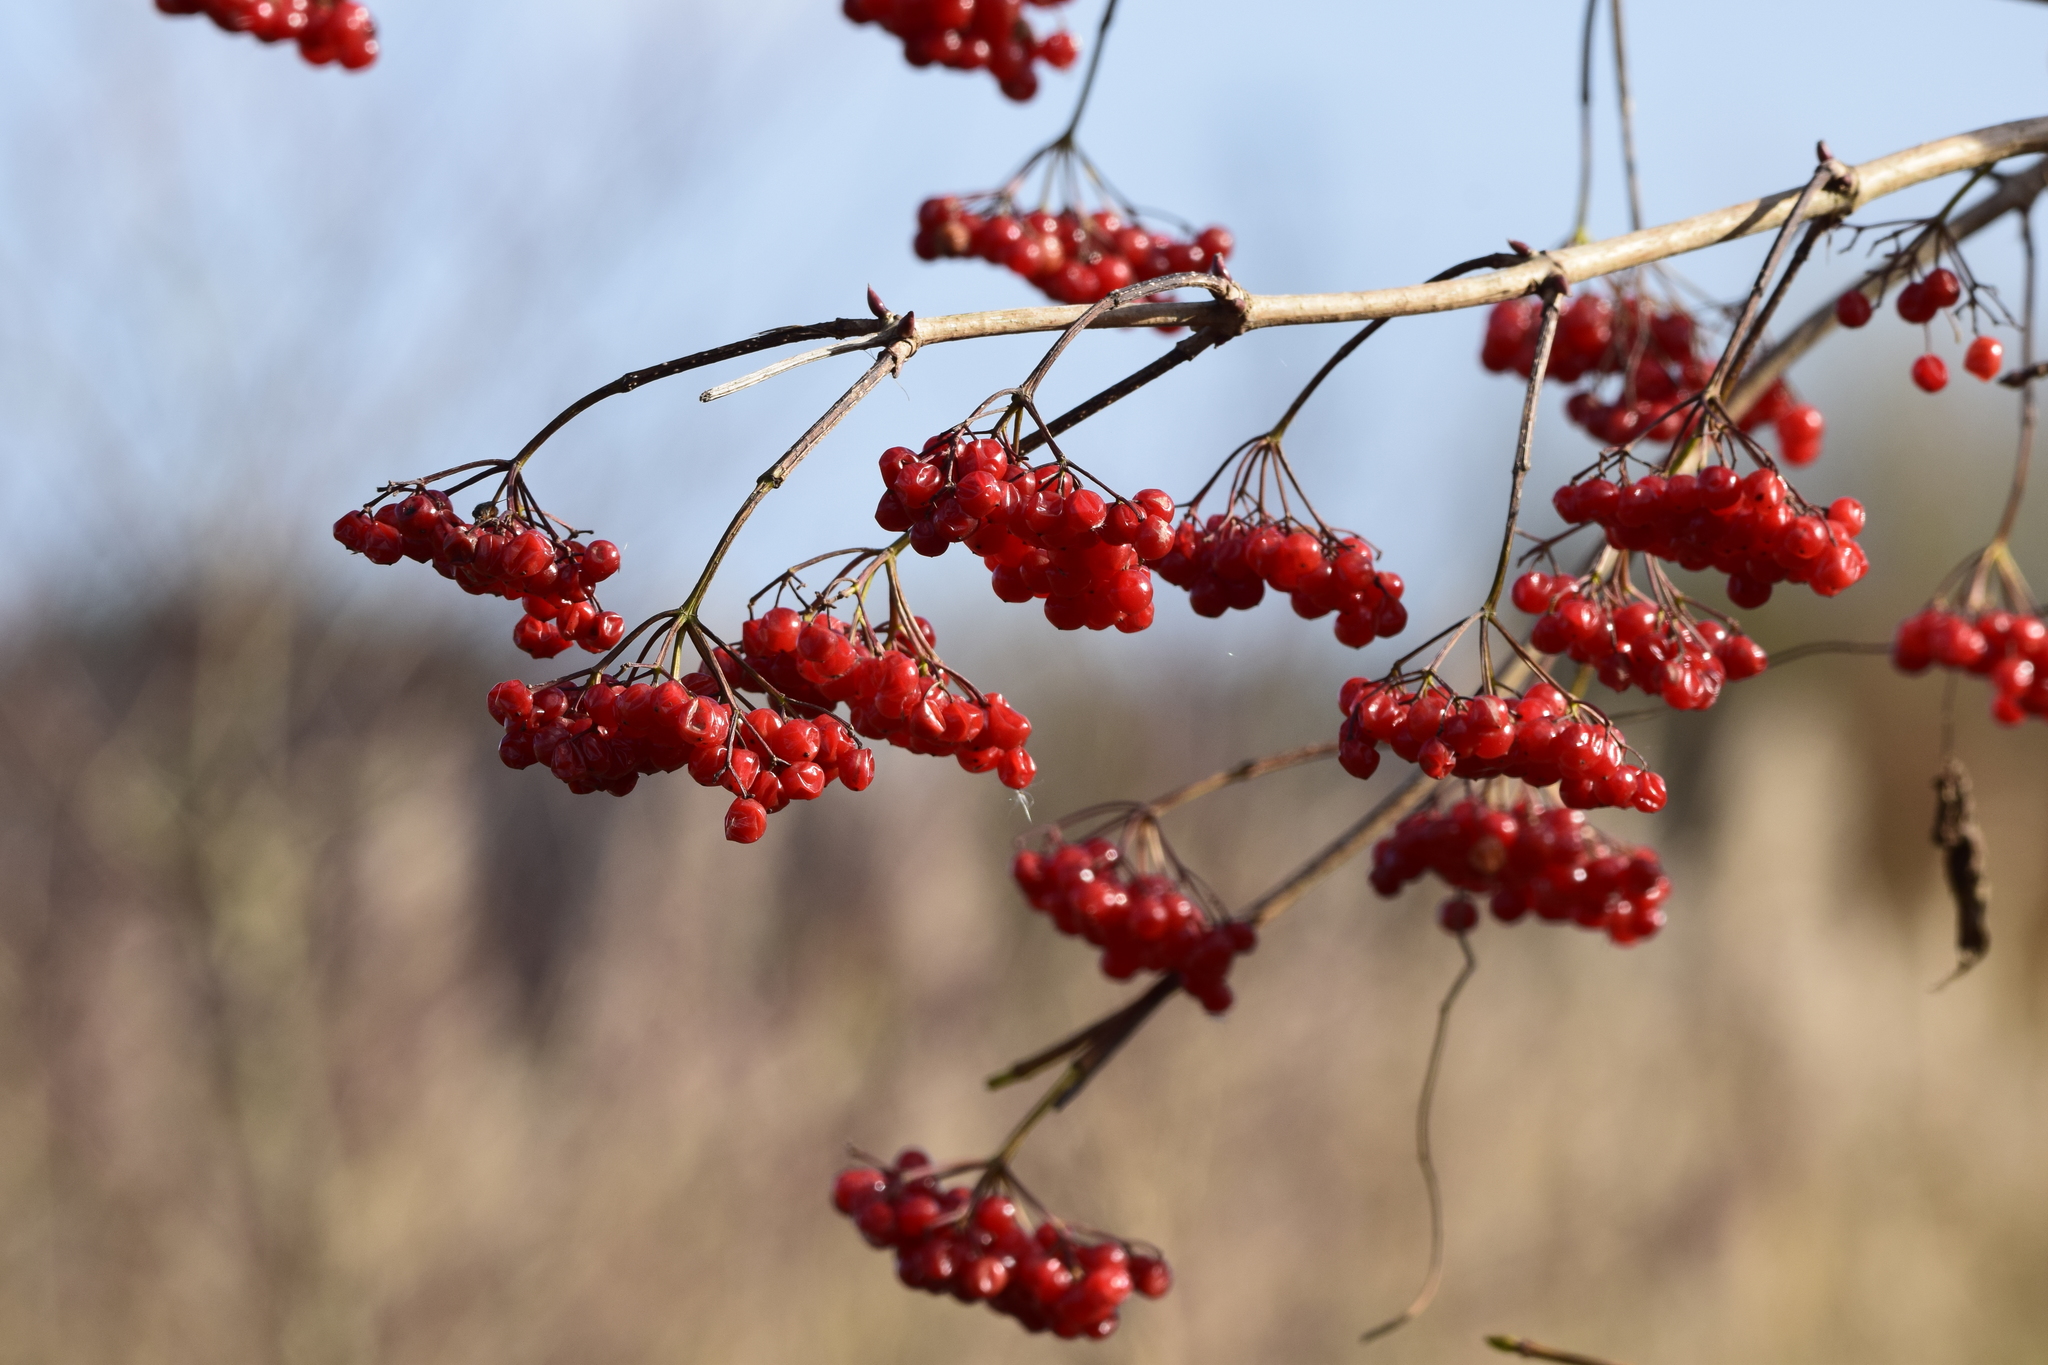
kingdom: Plantae
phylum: Tracheophyta
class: Magnoliopsida
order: Dipsacales
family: Viburnaceae
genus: Viburnum
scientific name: Viburnum opulus
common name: Guelder-rose
